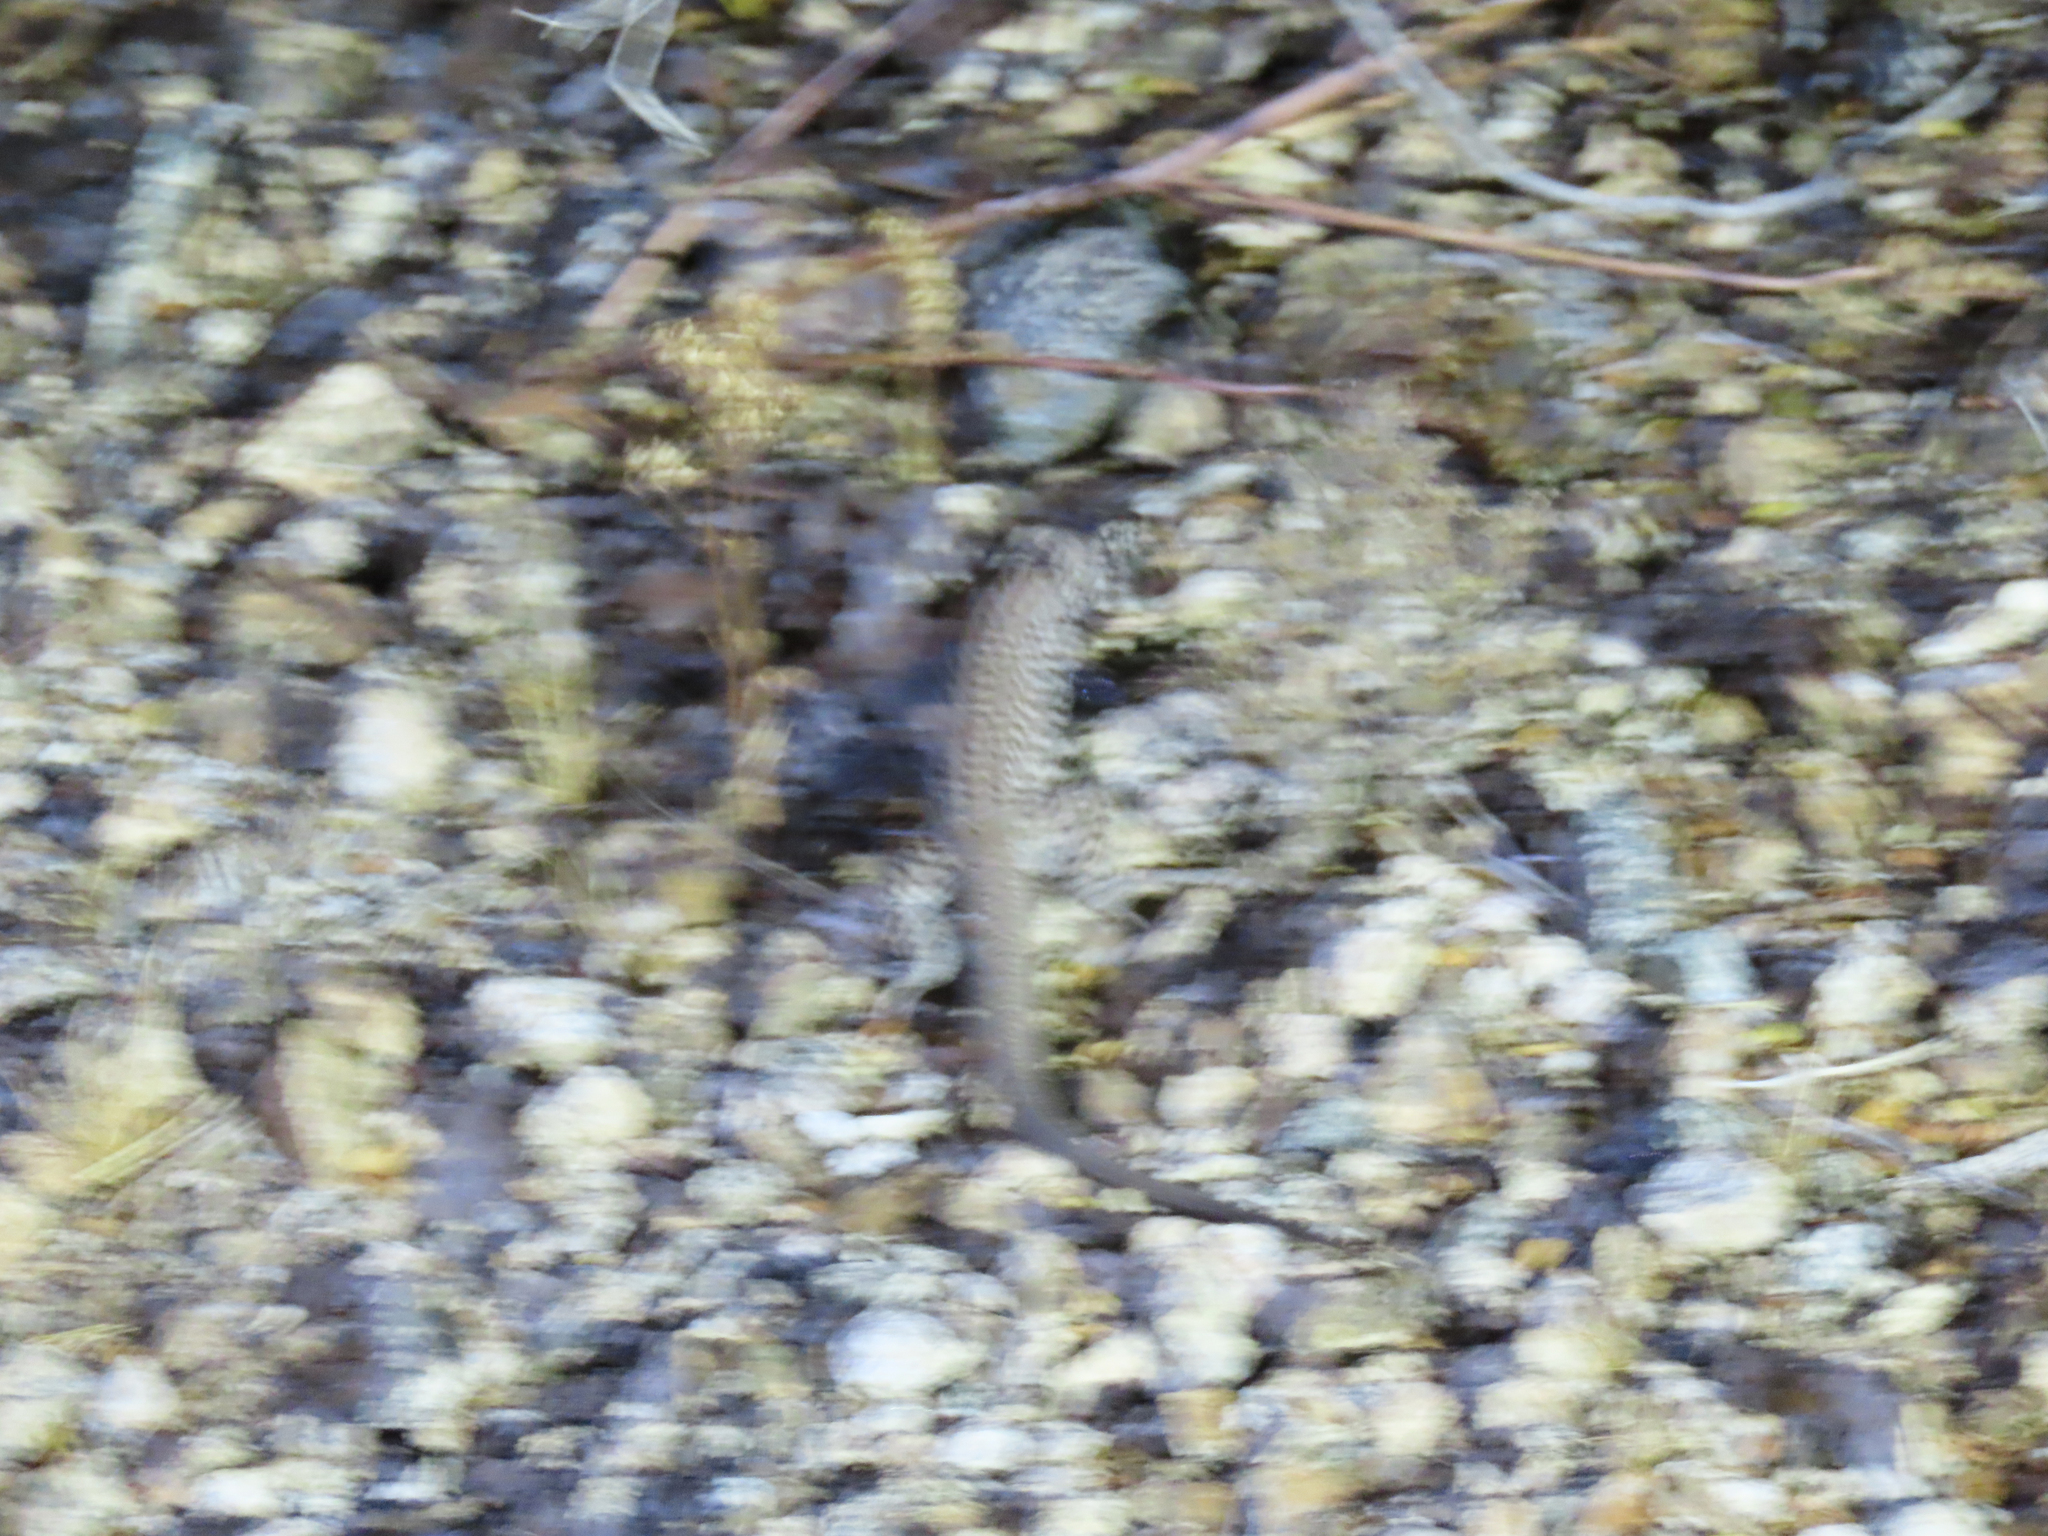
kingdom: Animalia
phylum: Chordata
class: Squamata
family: Teiidae
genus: Aspidoscelis
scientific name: Aspidoscelis tigris
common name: Tiger whiptail
